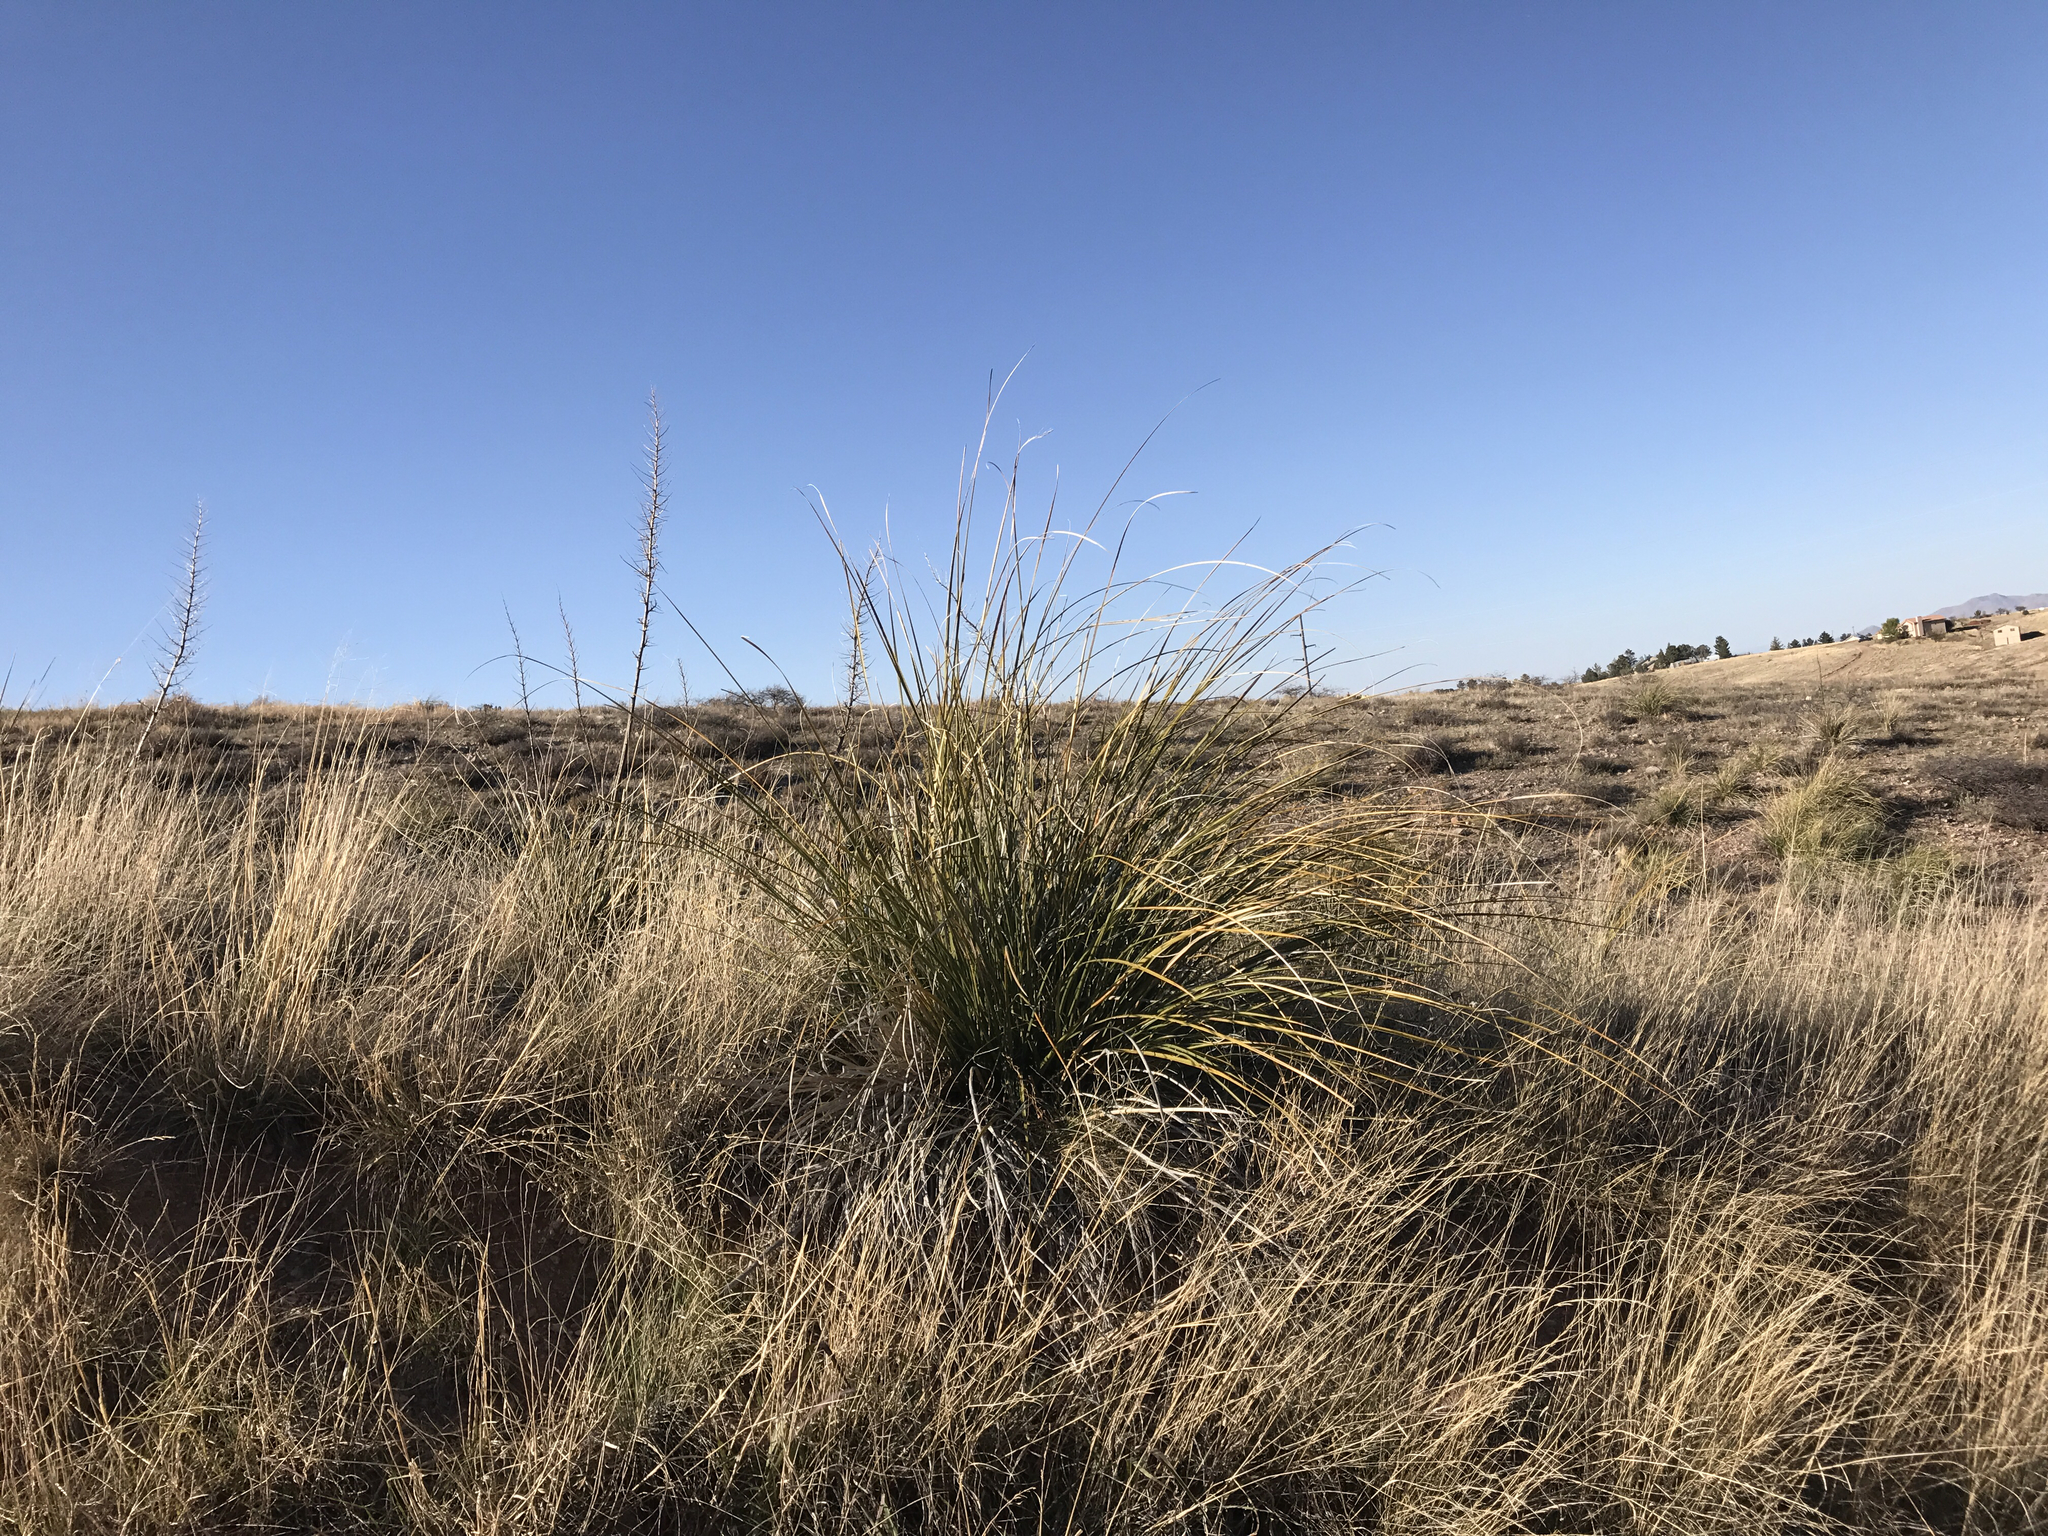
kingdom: Plantae
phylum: Tracheophyta
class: Liliopsida
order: Asparagales
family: Asparagaceae
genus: Nolina
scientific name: Nolina microcarpa
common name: Bear-grass
